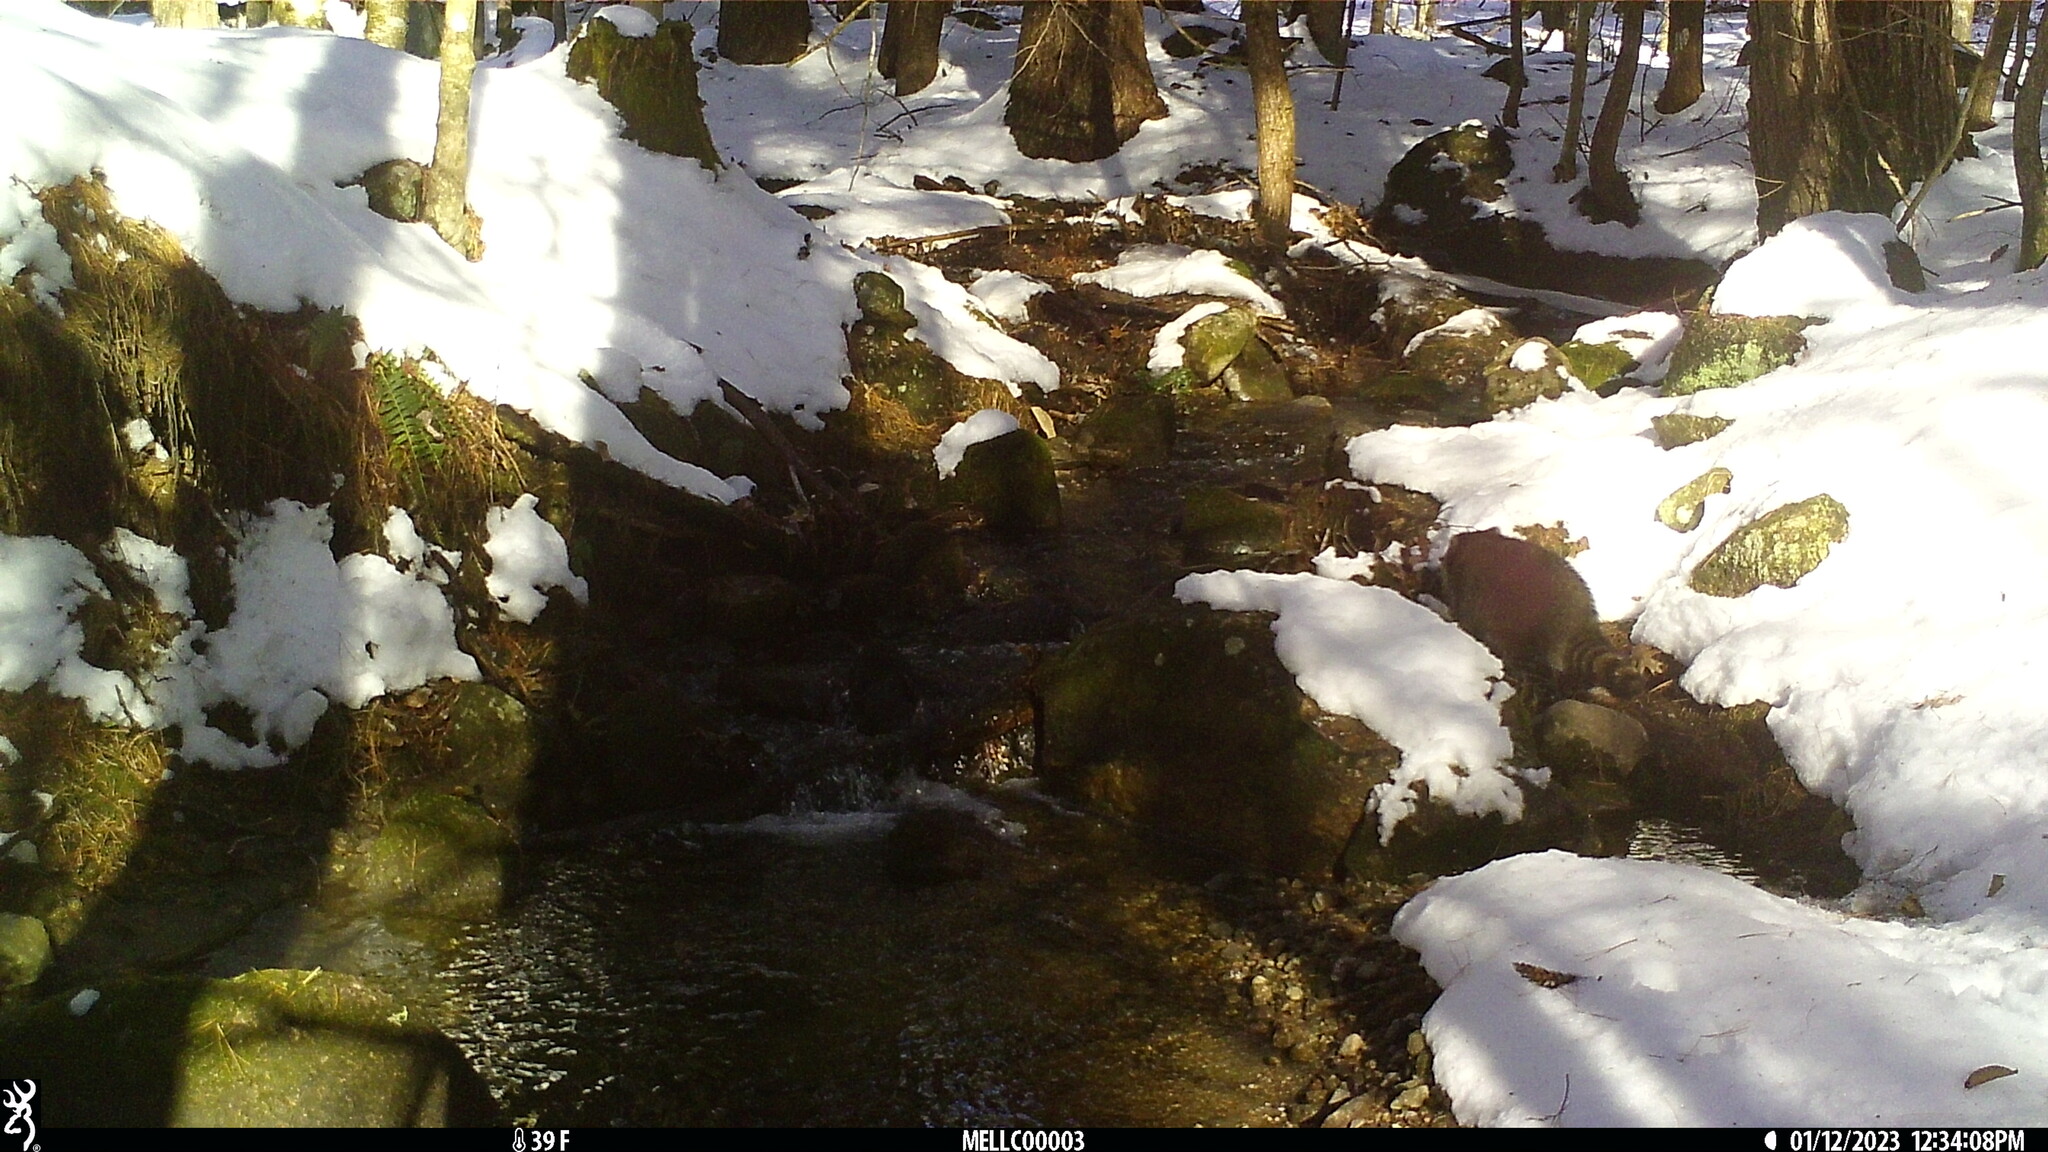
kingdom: Animalia
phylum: Chordata
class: Mammalia
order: Carnivora
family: Procyonidae
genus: Procyon
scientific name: Procyon lotor
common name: Raccoon
